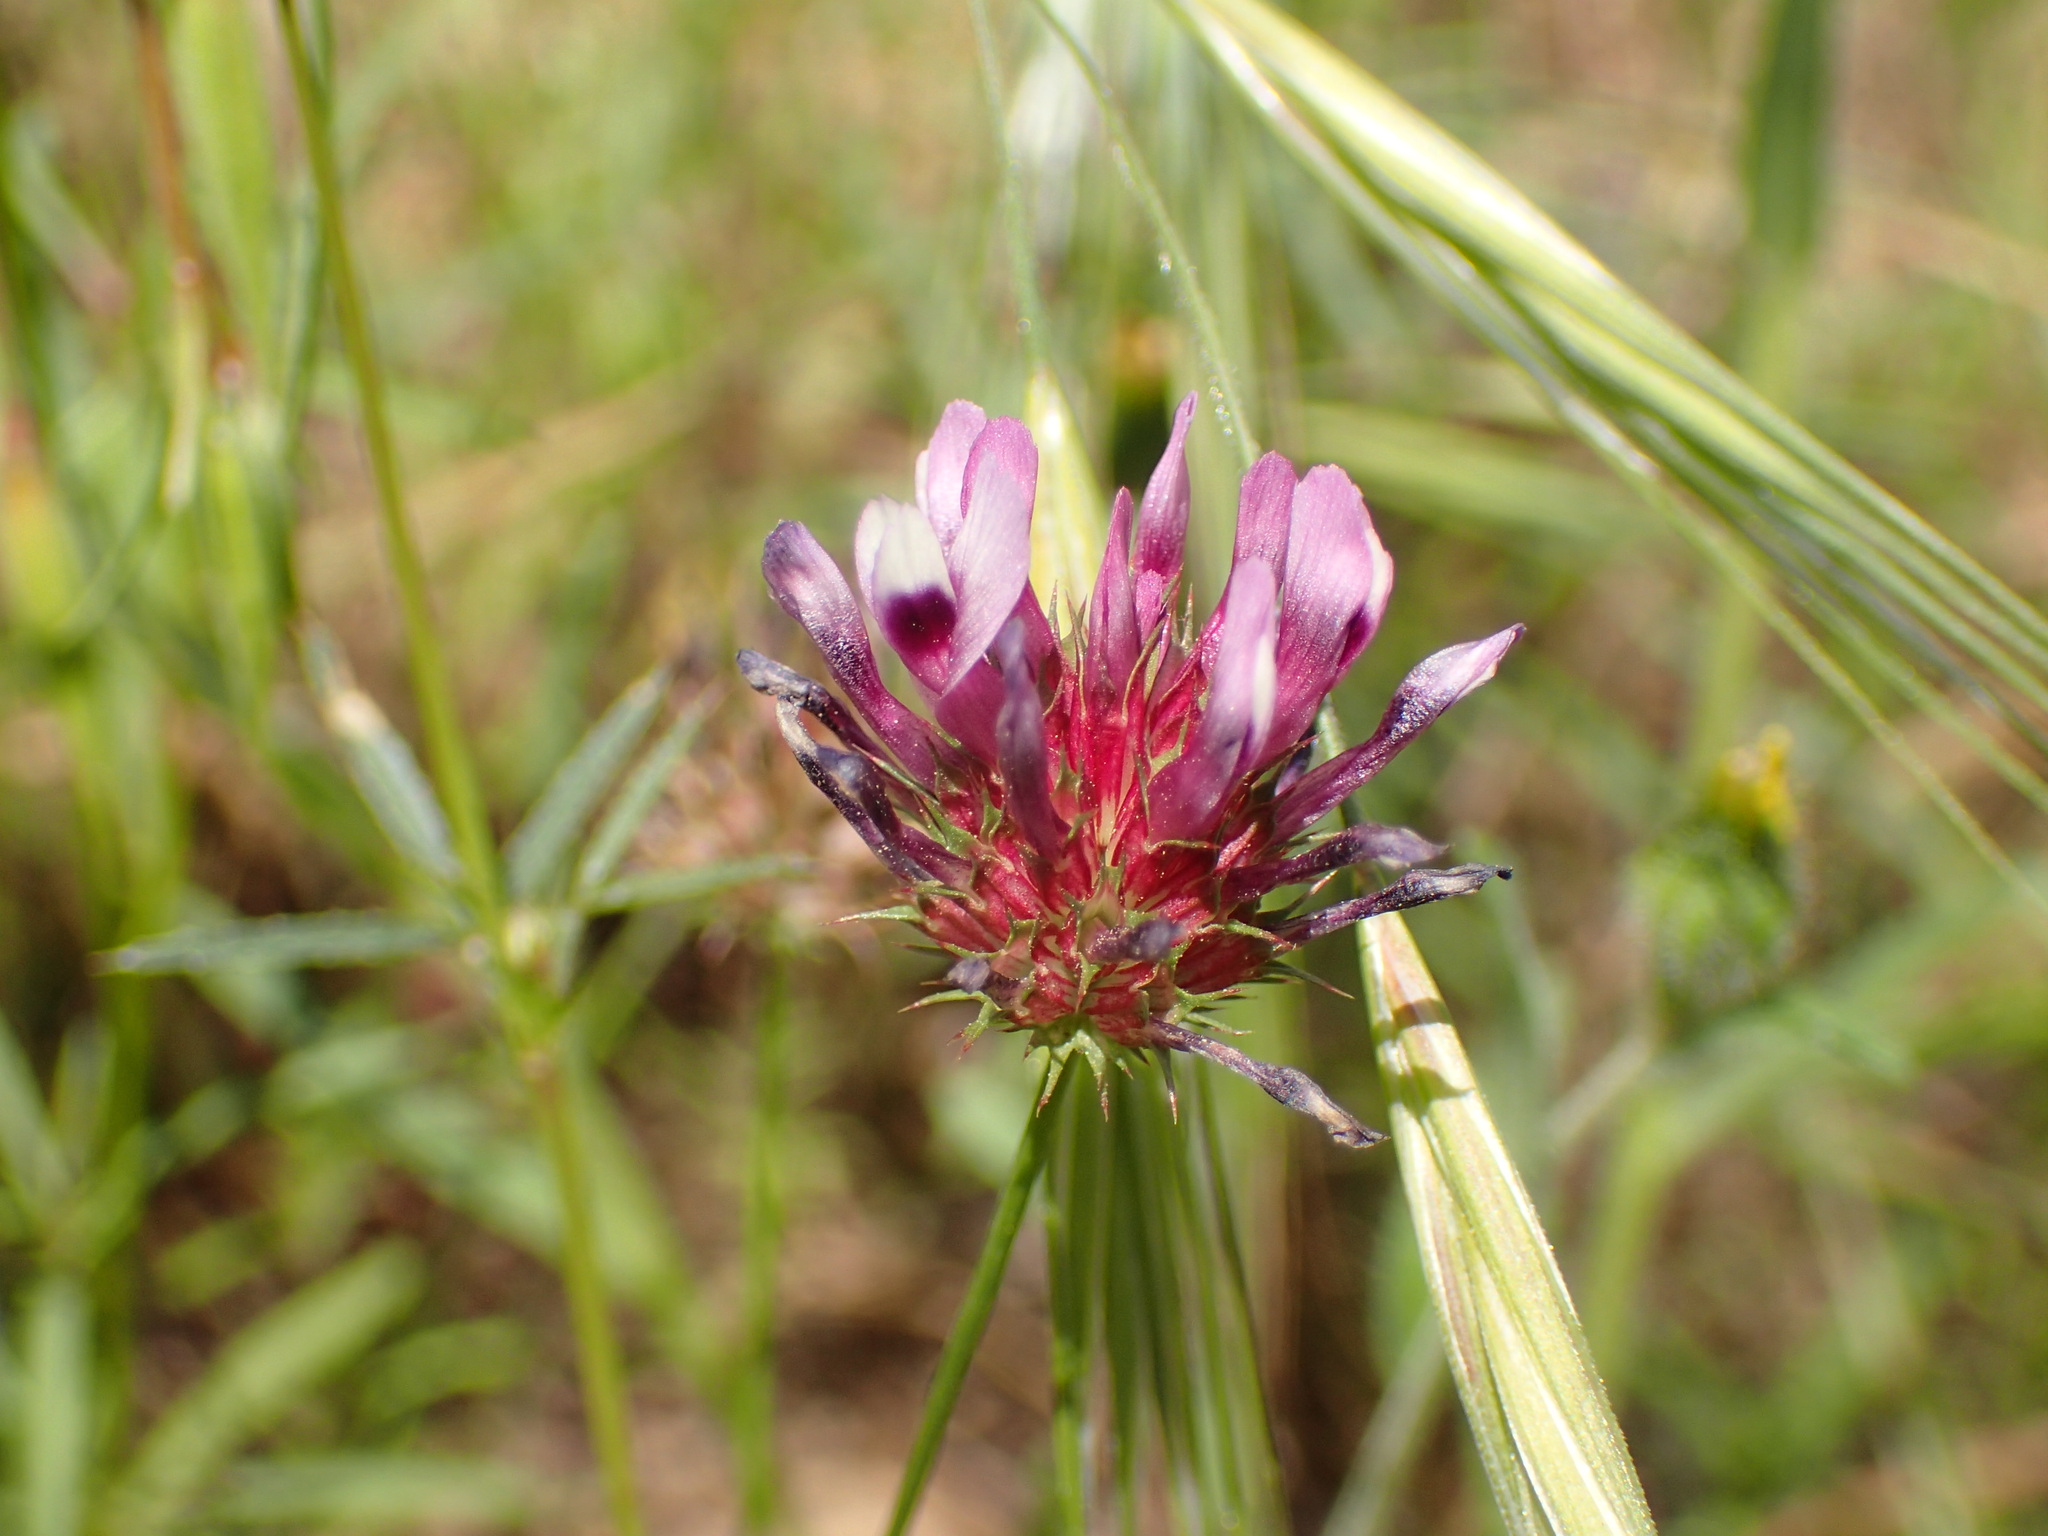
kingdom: Plantae
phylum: Tracheophyta
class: Magnoliopsida
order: Fabales
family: Fabaceae
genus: Trifolium
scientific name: Trifolium willdenovii
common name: Tomcat clover
